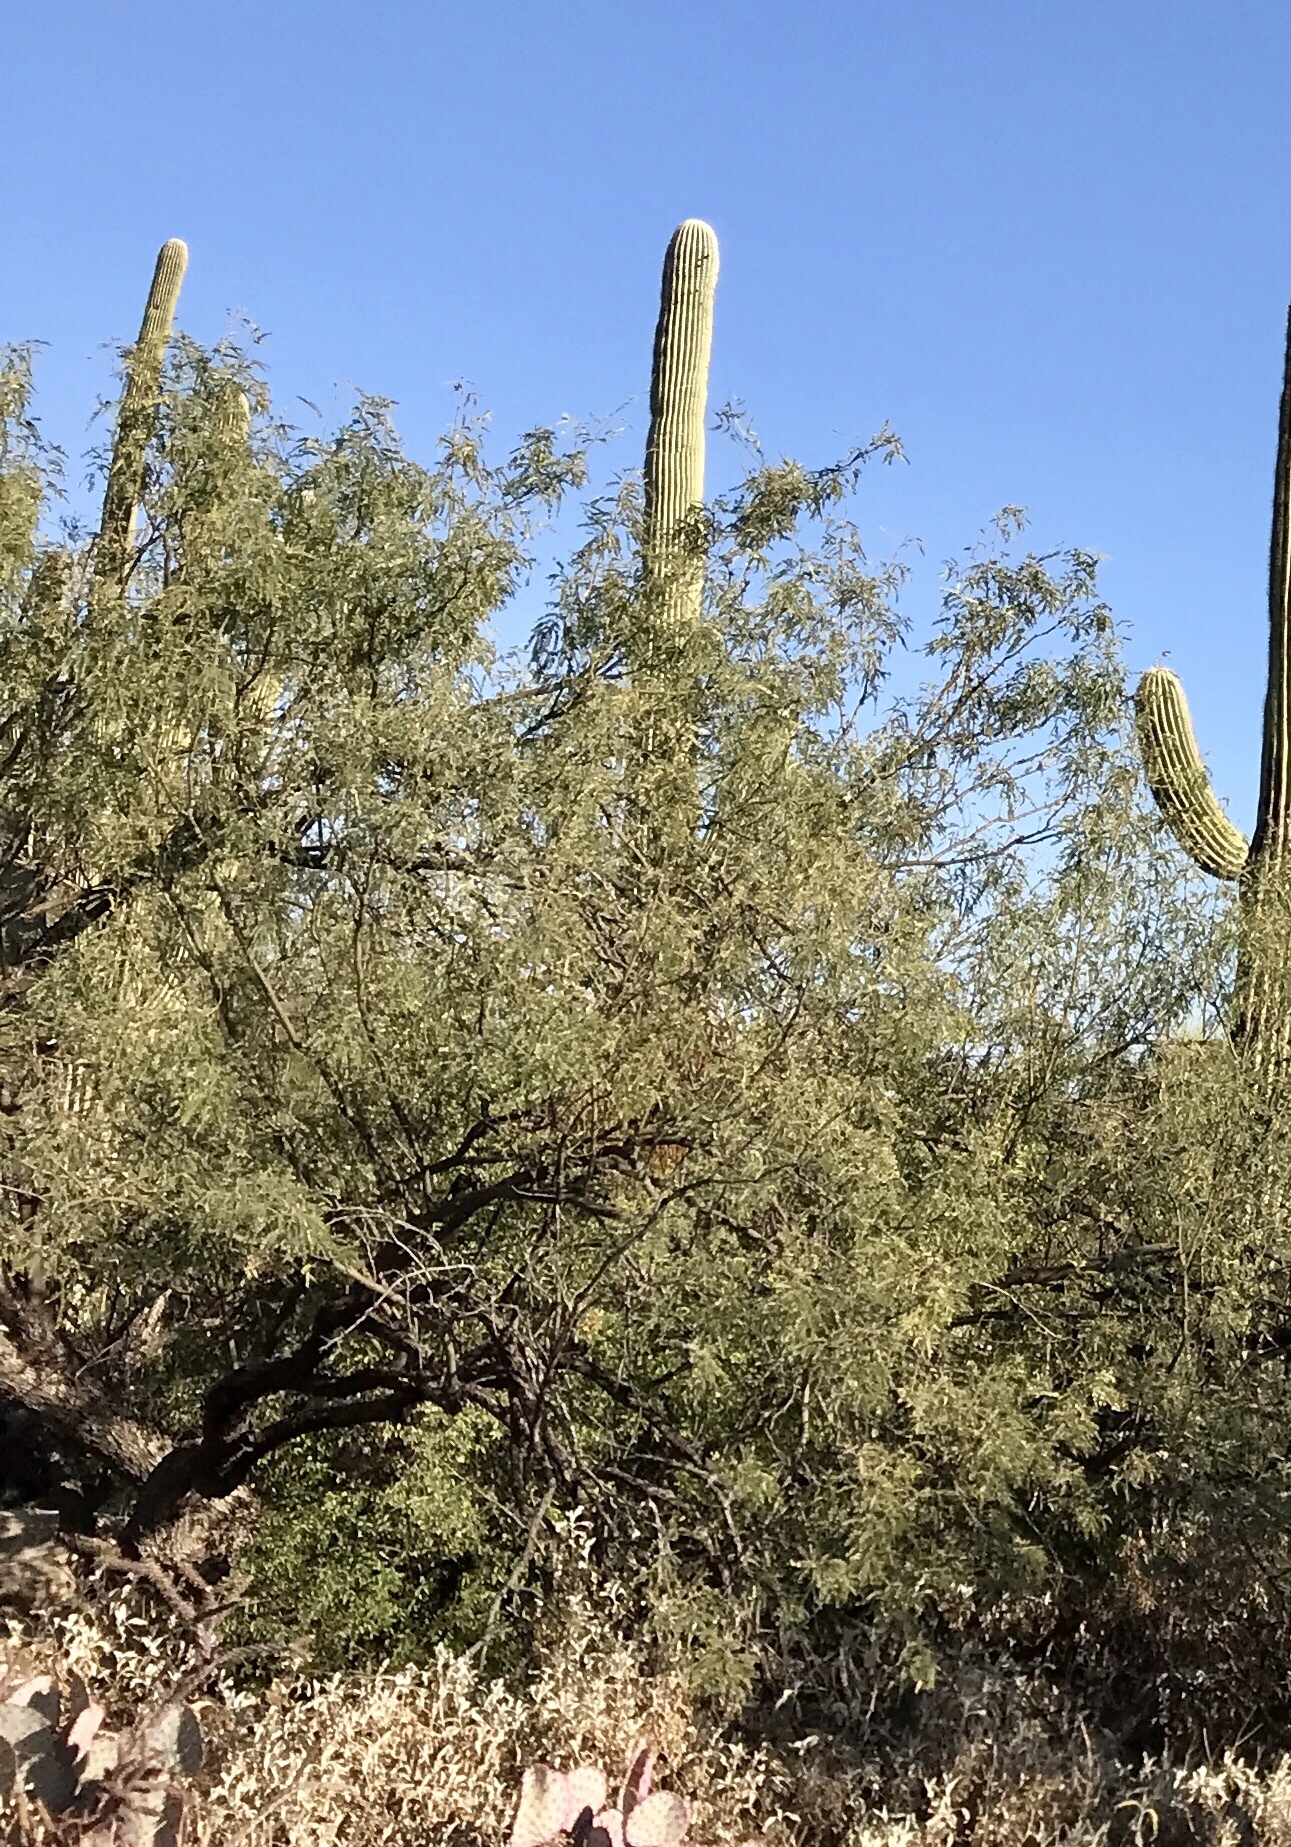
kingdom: Plantae
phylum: Tracheophyta
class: Magnoliopsida
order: Fabales
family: Fabaceae
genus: Prosopis
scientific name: Prosopis velutina
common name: Velvet mesquite
